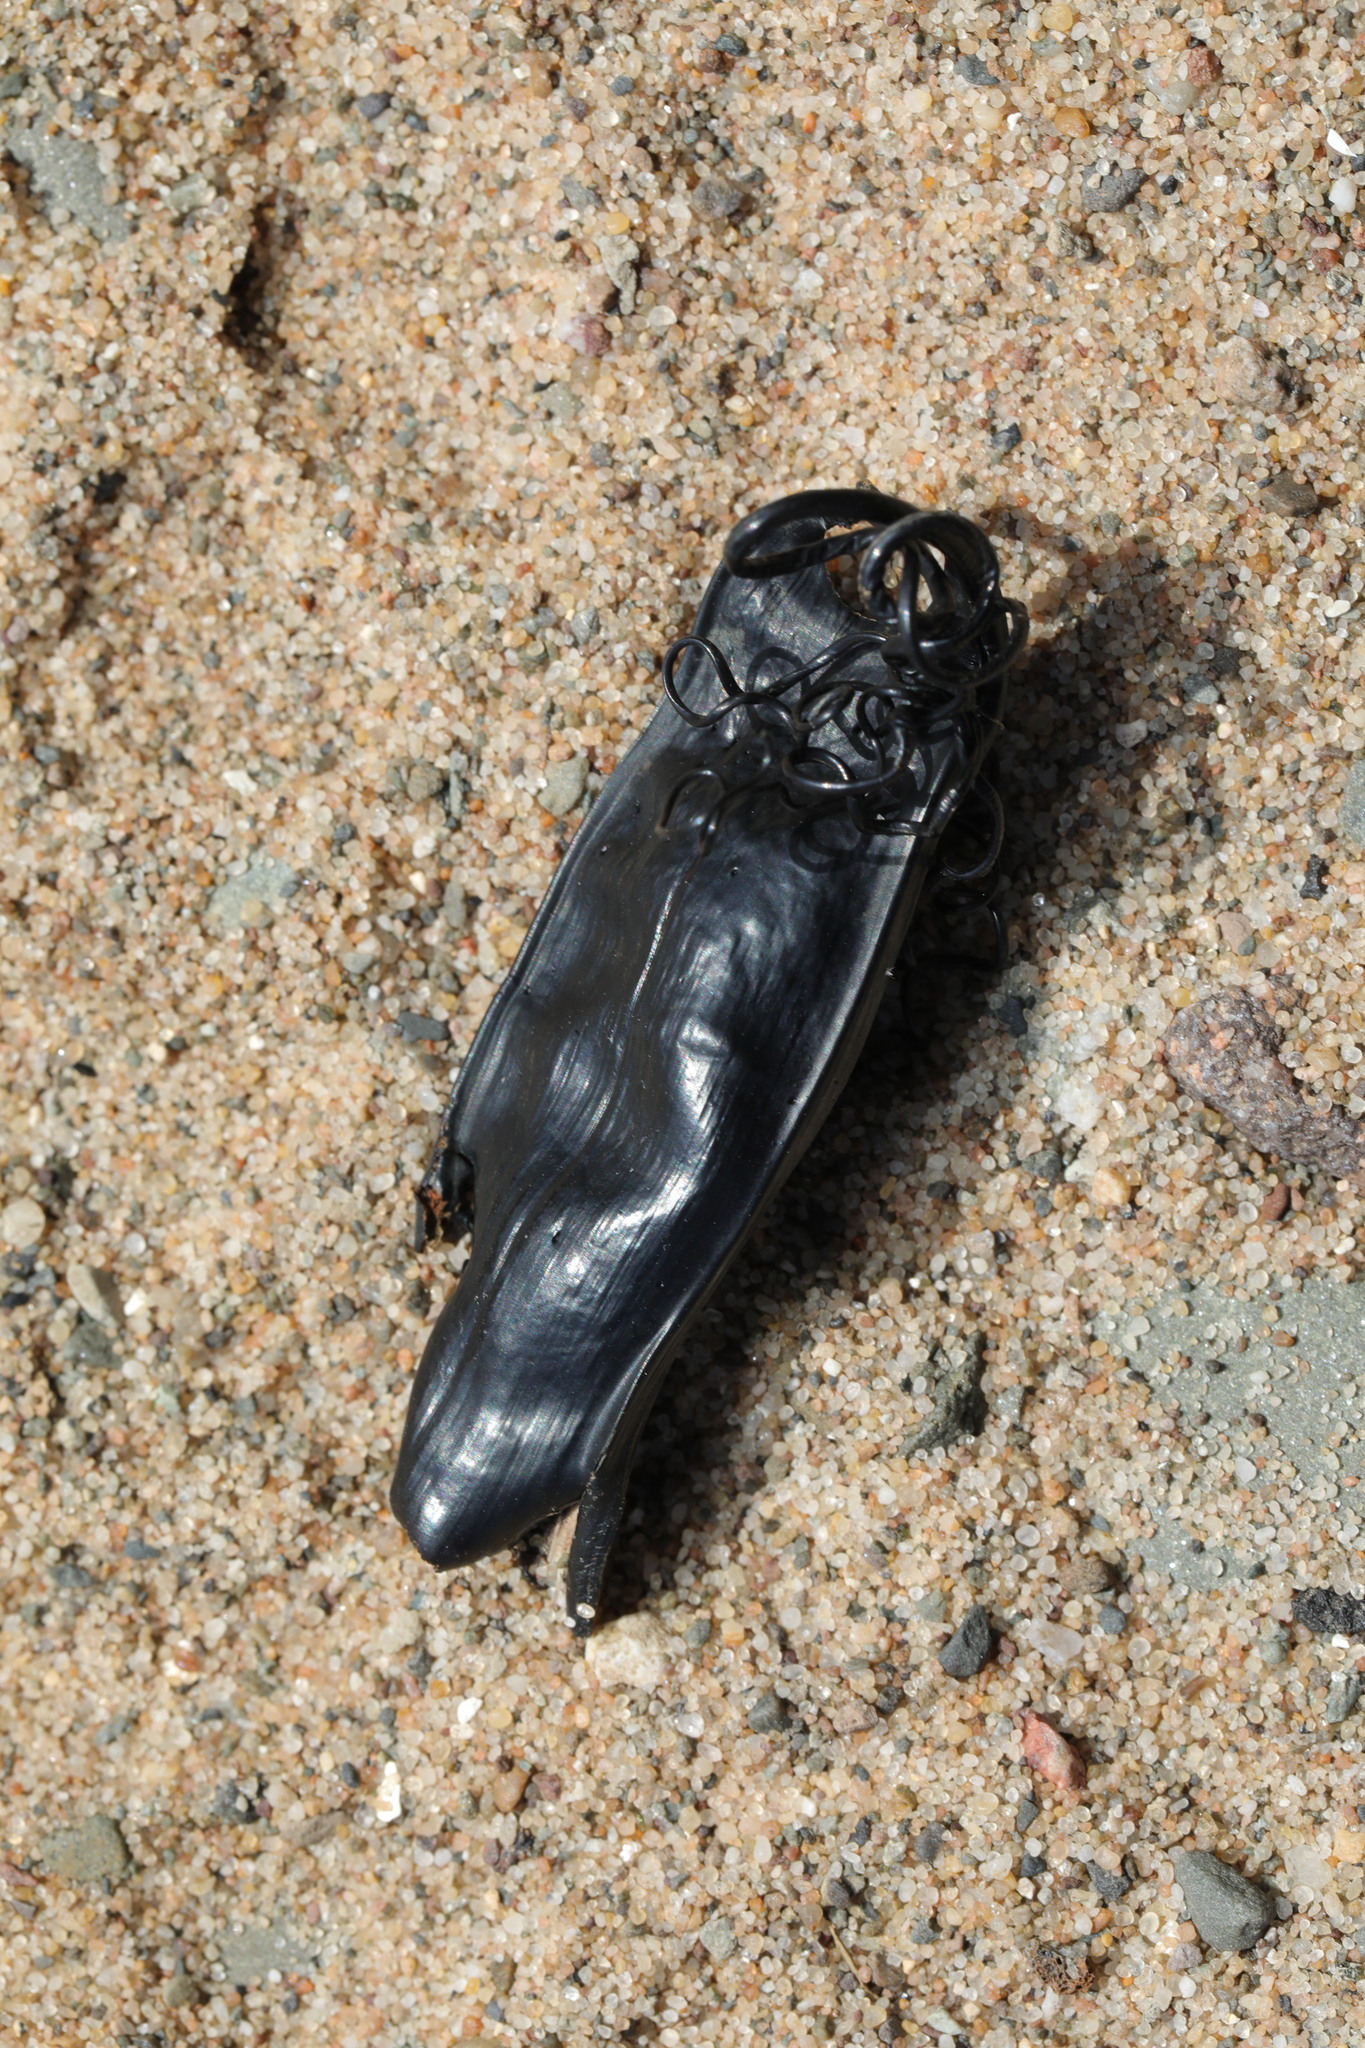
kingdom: Animalia
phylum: Chordata
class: Elasmobranchii
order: Carcharhiniformes
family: Scyliorhinidae
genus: Scyliorhinus
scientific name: Scyliorhinus canicula
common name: Lesser spotted dogfish
